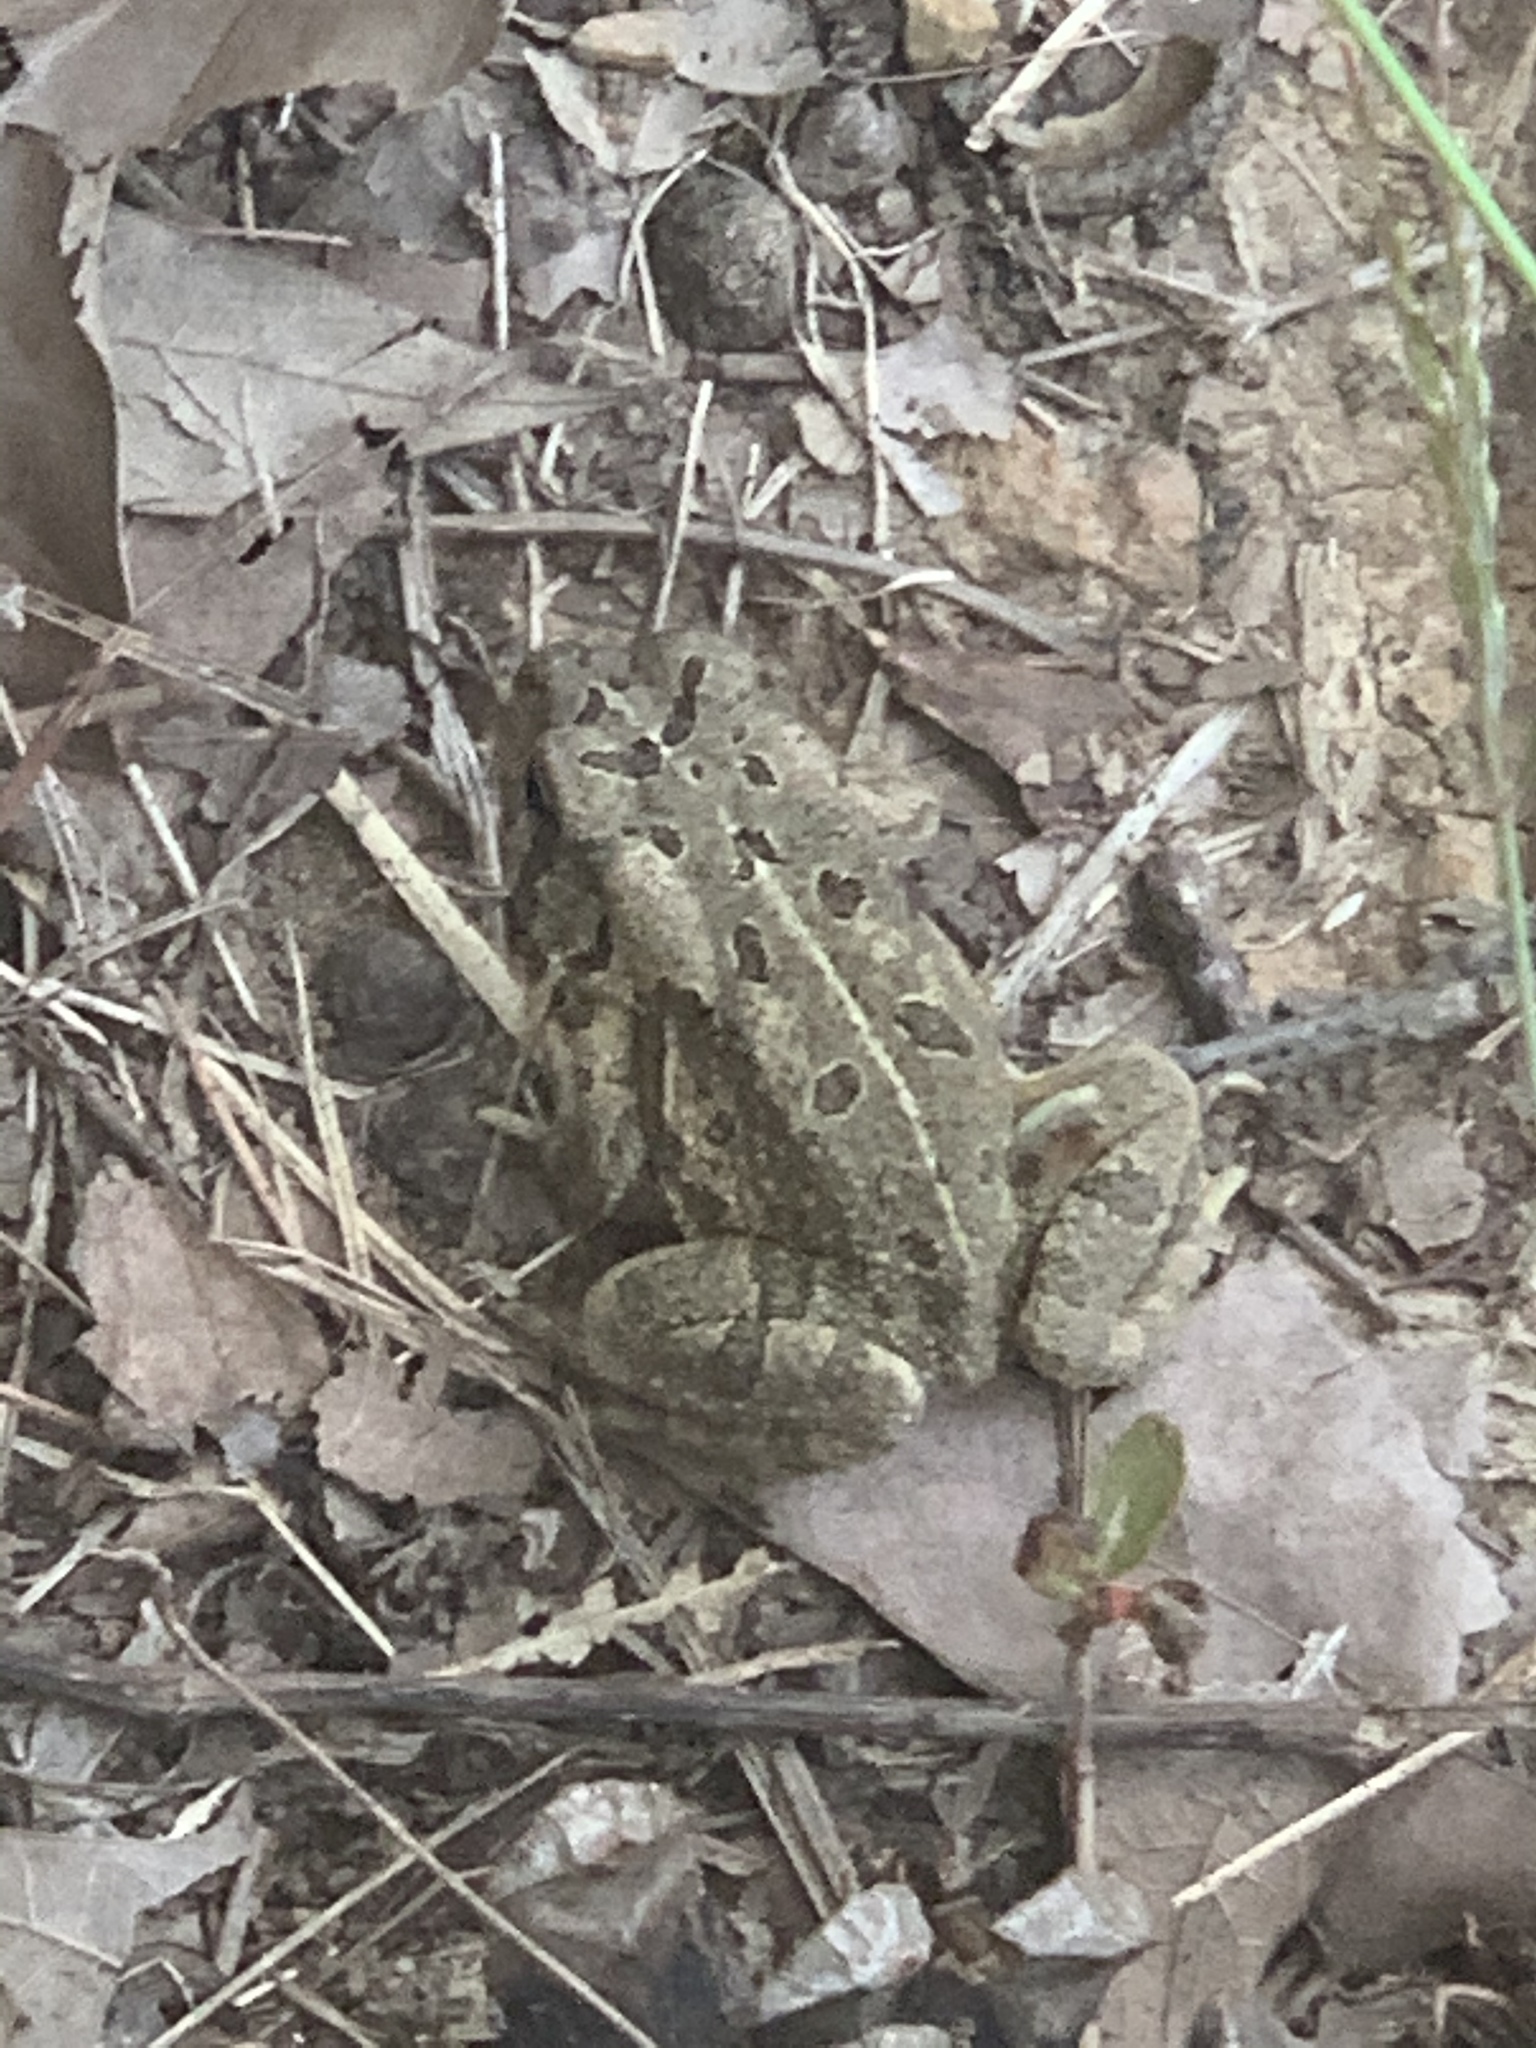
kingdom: Animalia
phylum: Chordata
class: Amphibia
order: Anura
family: Bufonidae
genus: Anaxyrus
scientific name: Anaxyrus fowleri
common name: Fowler's toad
